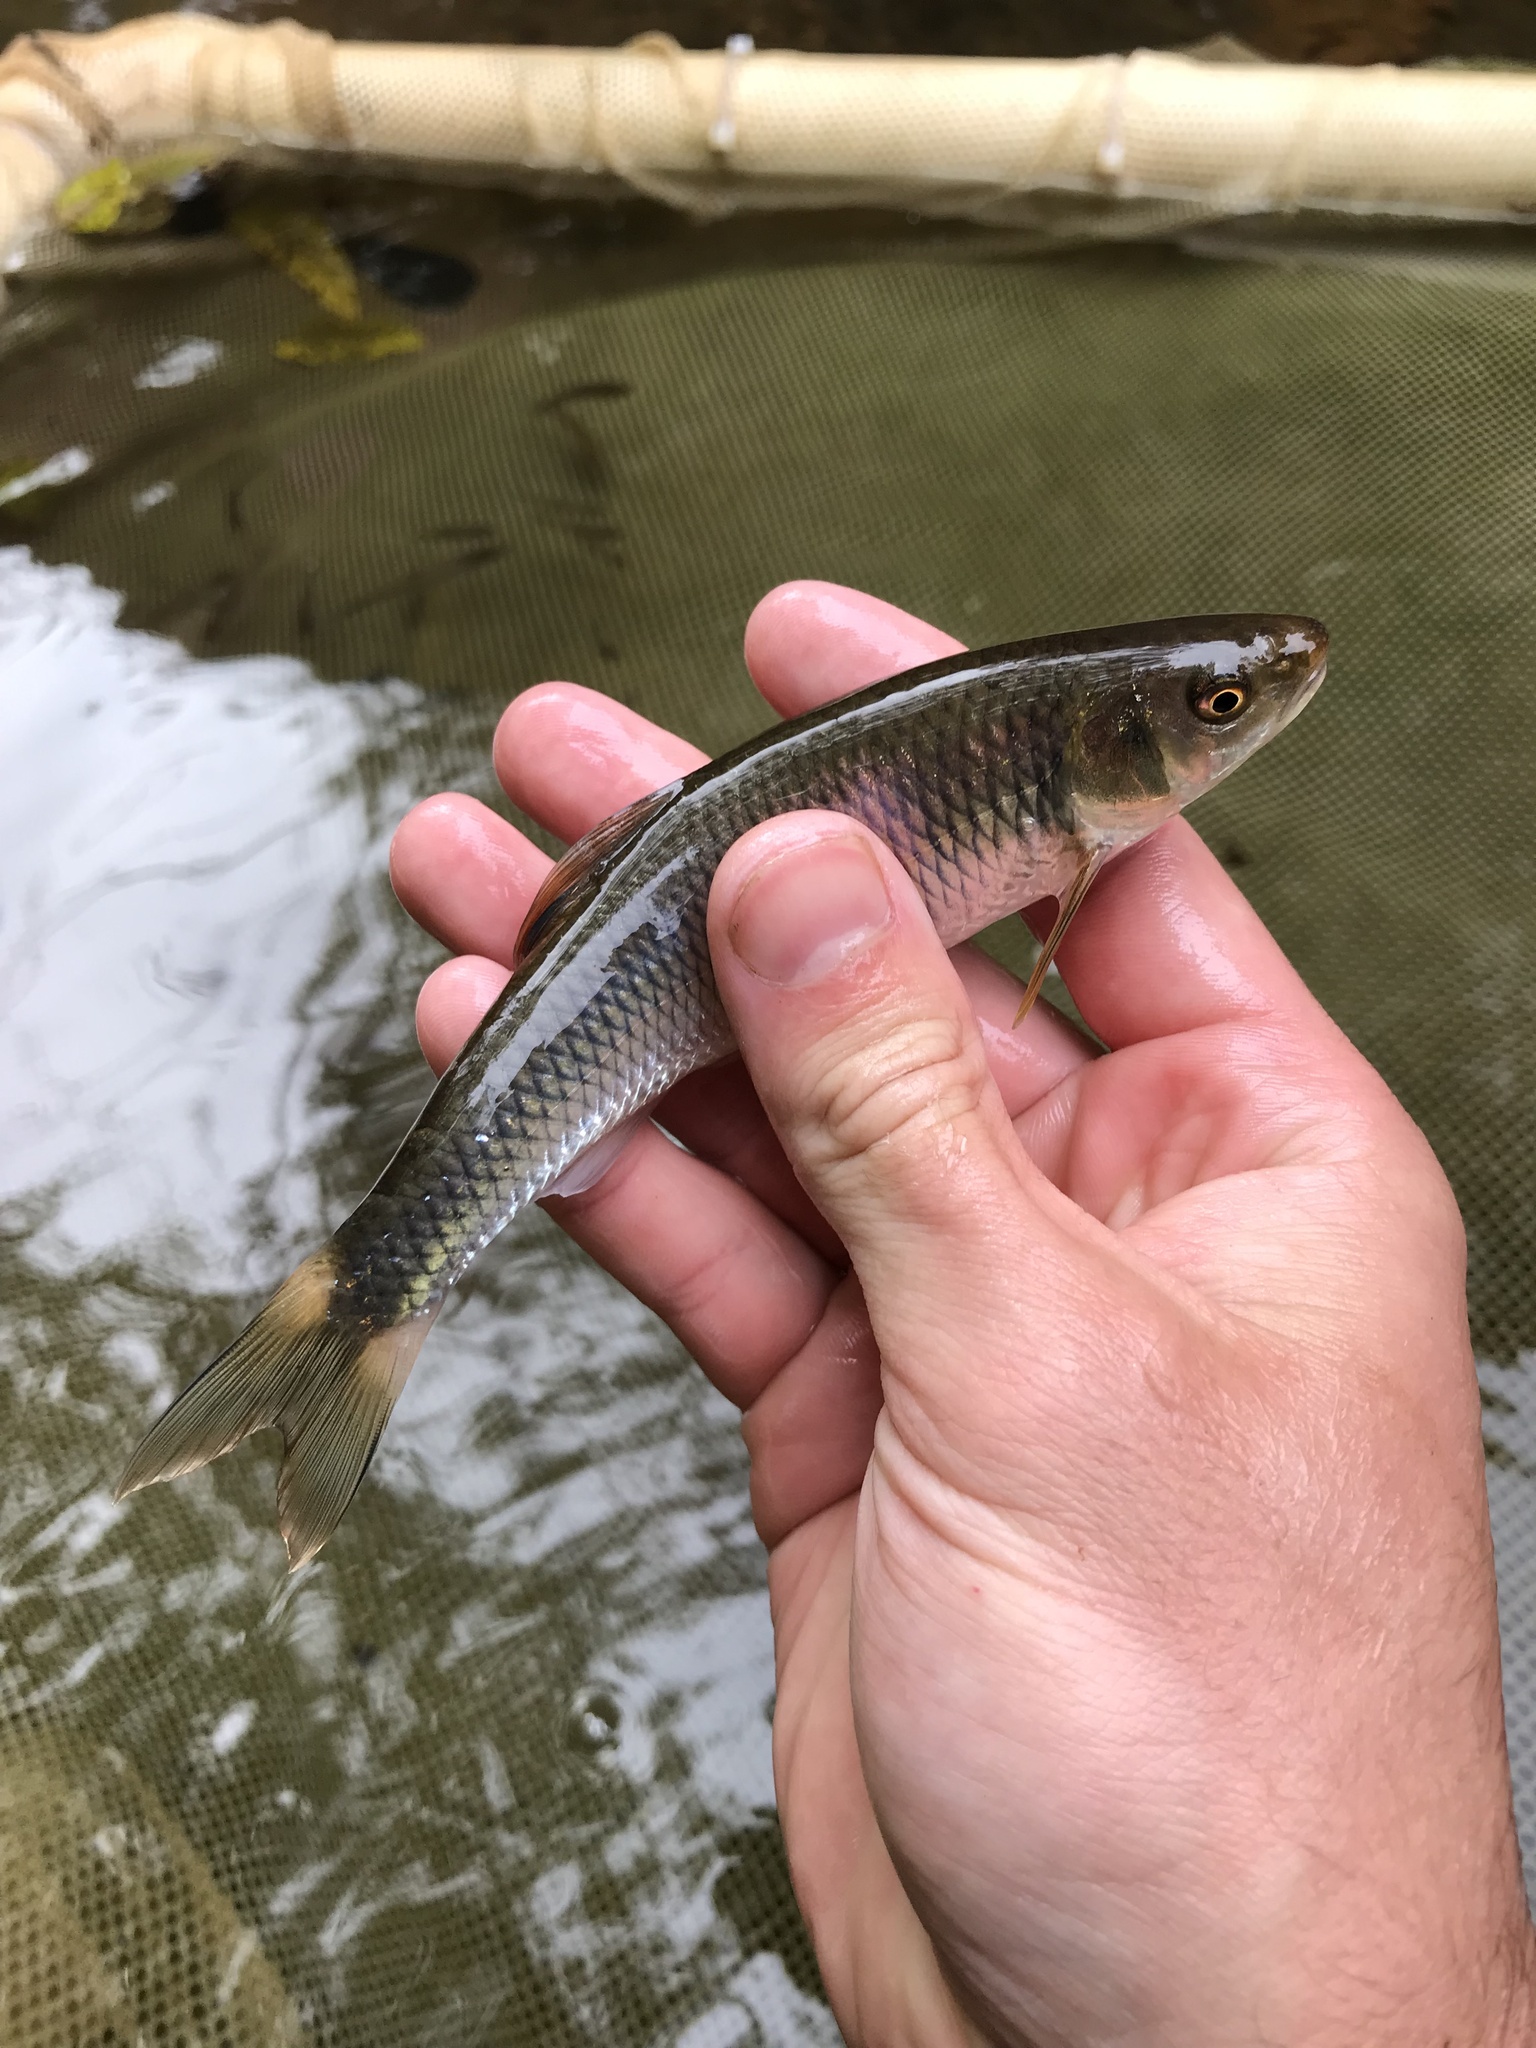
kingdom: Animalia
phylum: Chordata
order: Cypriniformes
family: Cyprinidae
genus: Cyprinella
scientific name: Cyprinella galactura
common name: Whitetail shiner
